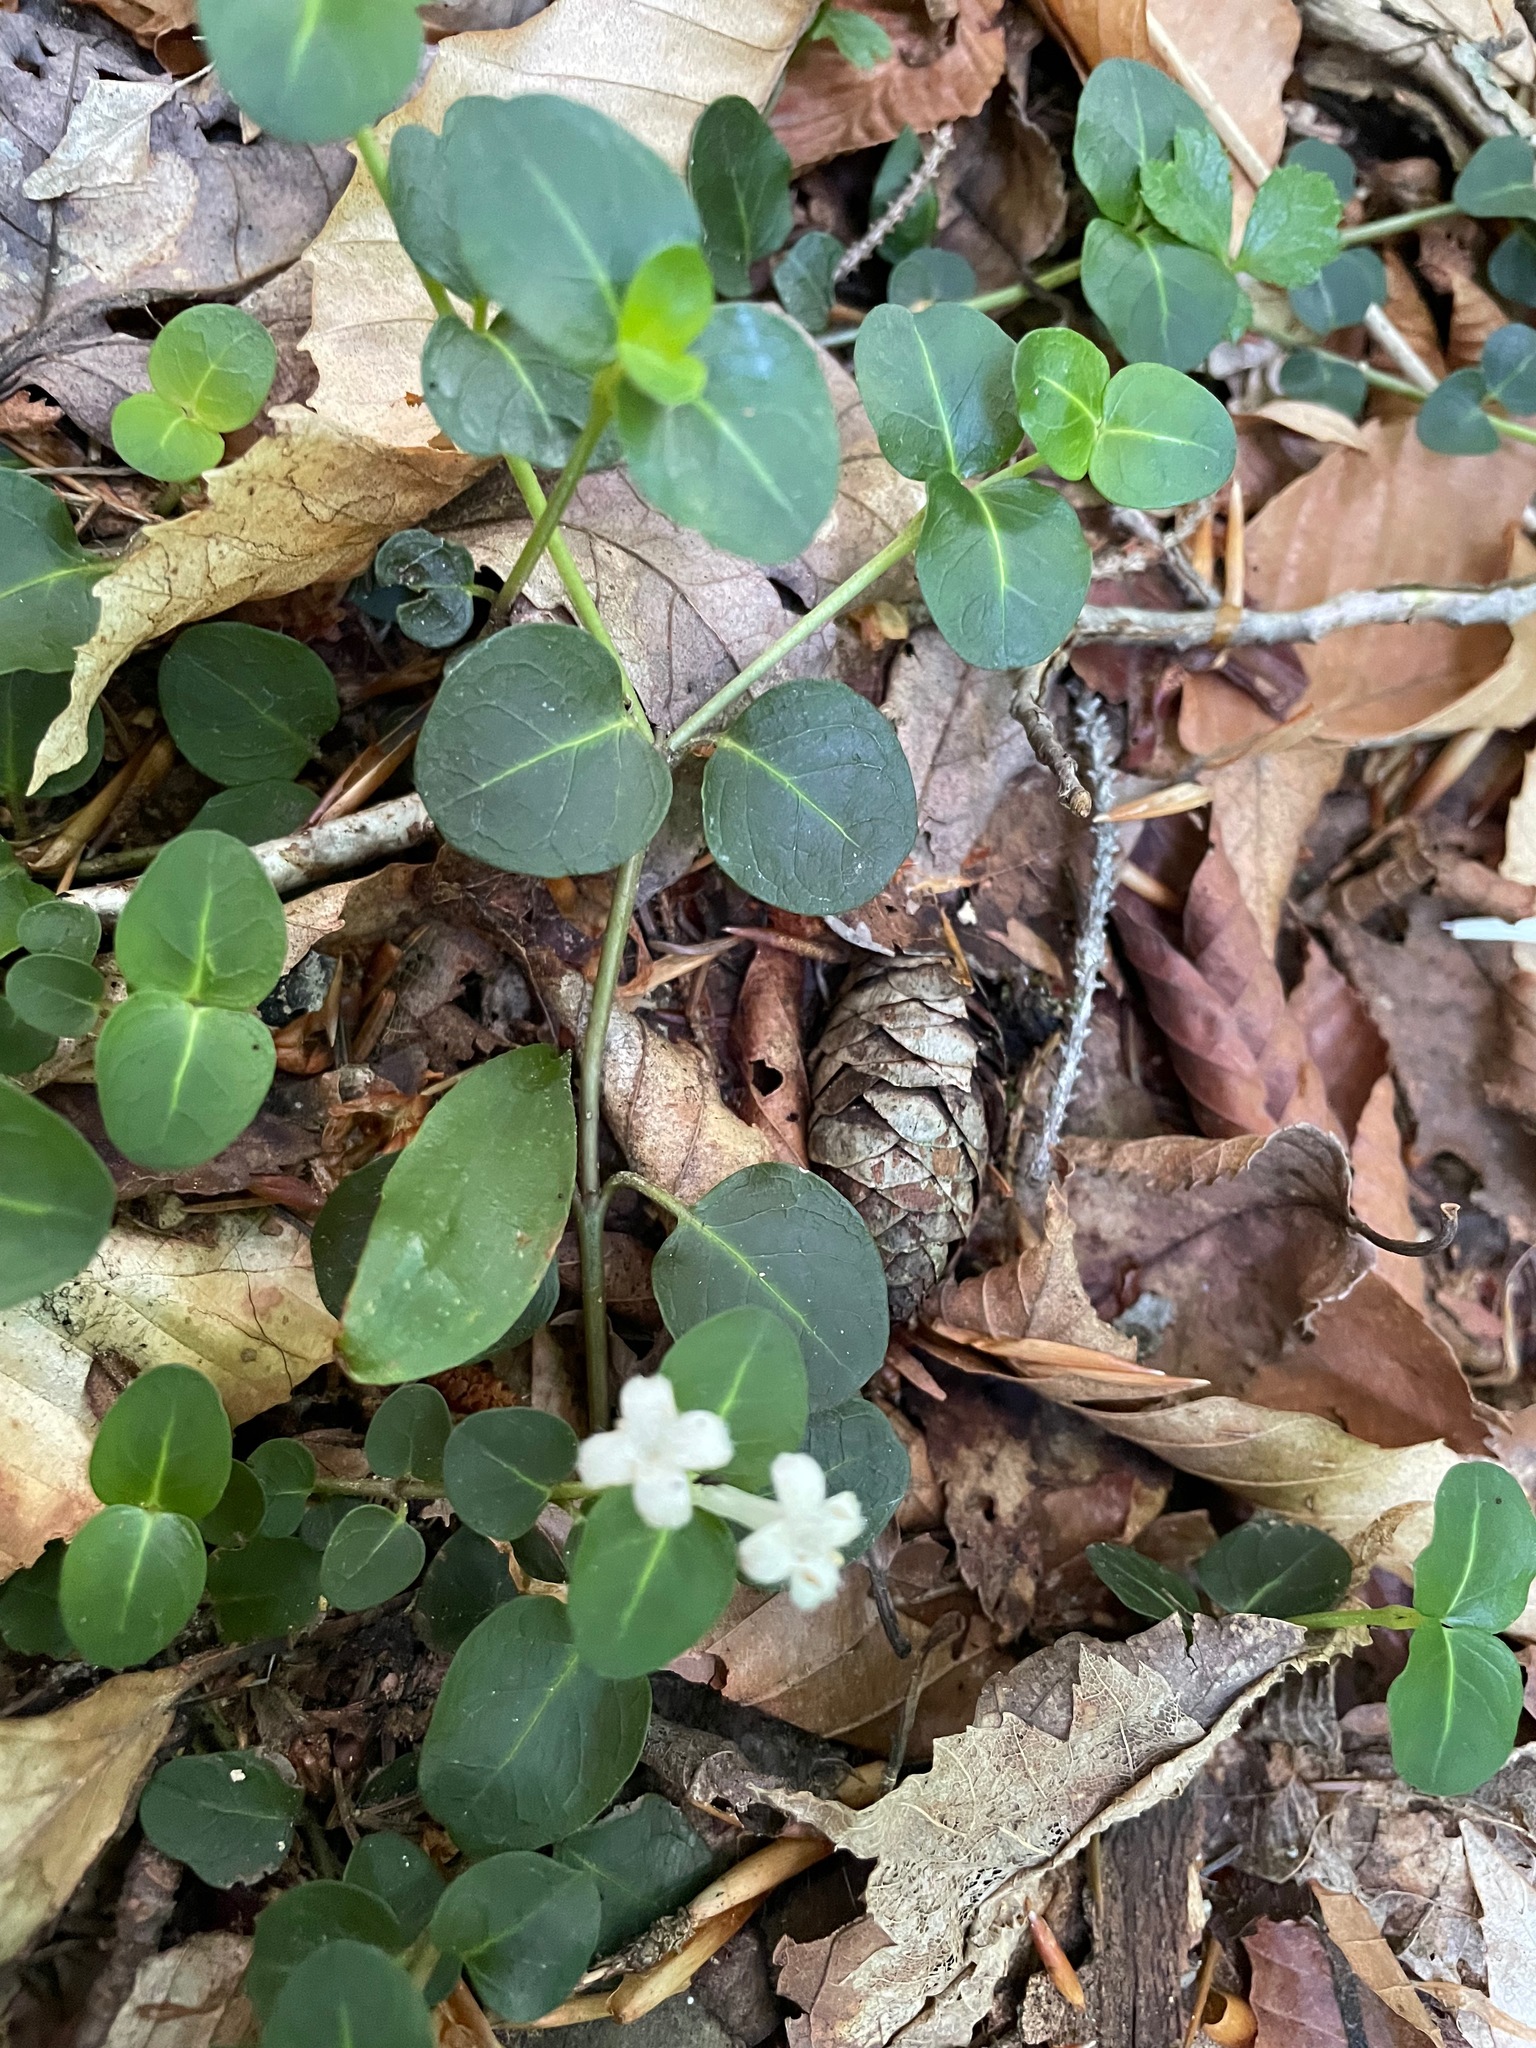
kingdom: Plantae
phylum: Tracheophyta
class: Magnoliopsida
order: Gentianales
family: Rubiaceae
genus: Mitchella
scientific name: Mitchella repens
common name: Partridge-berry
